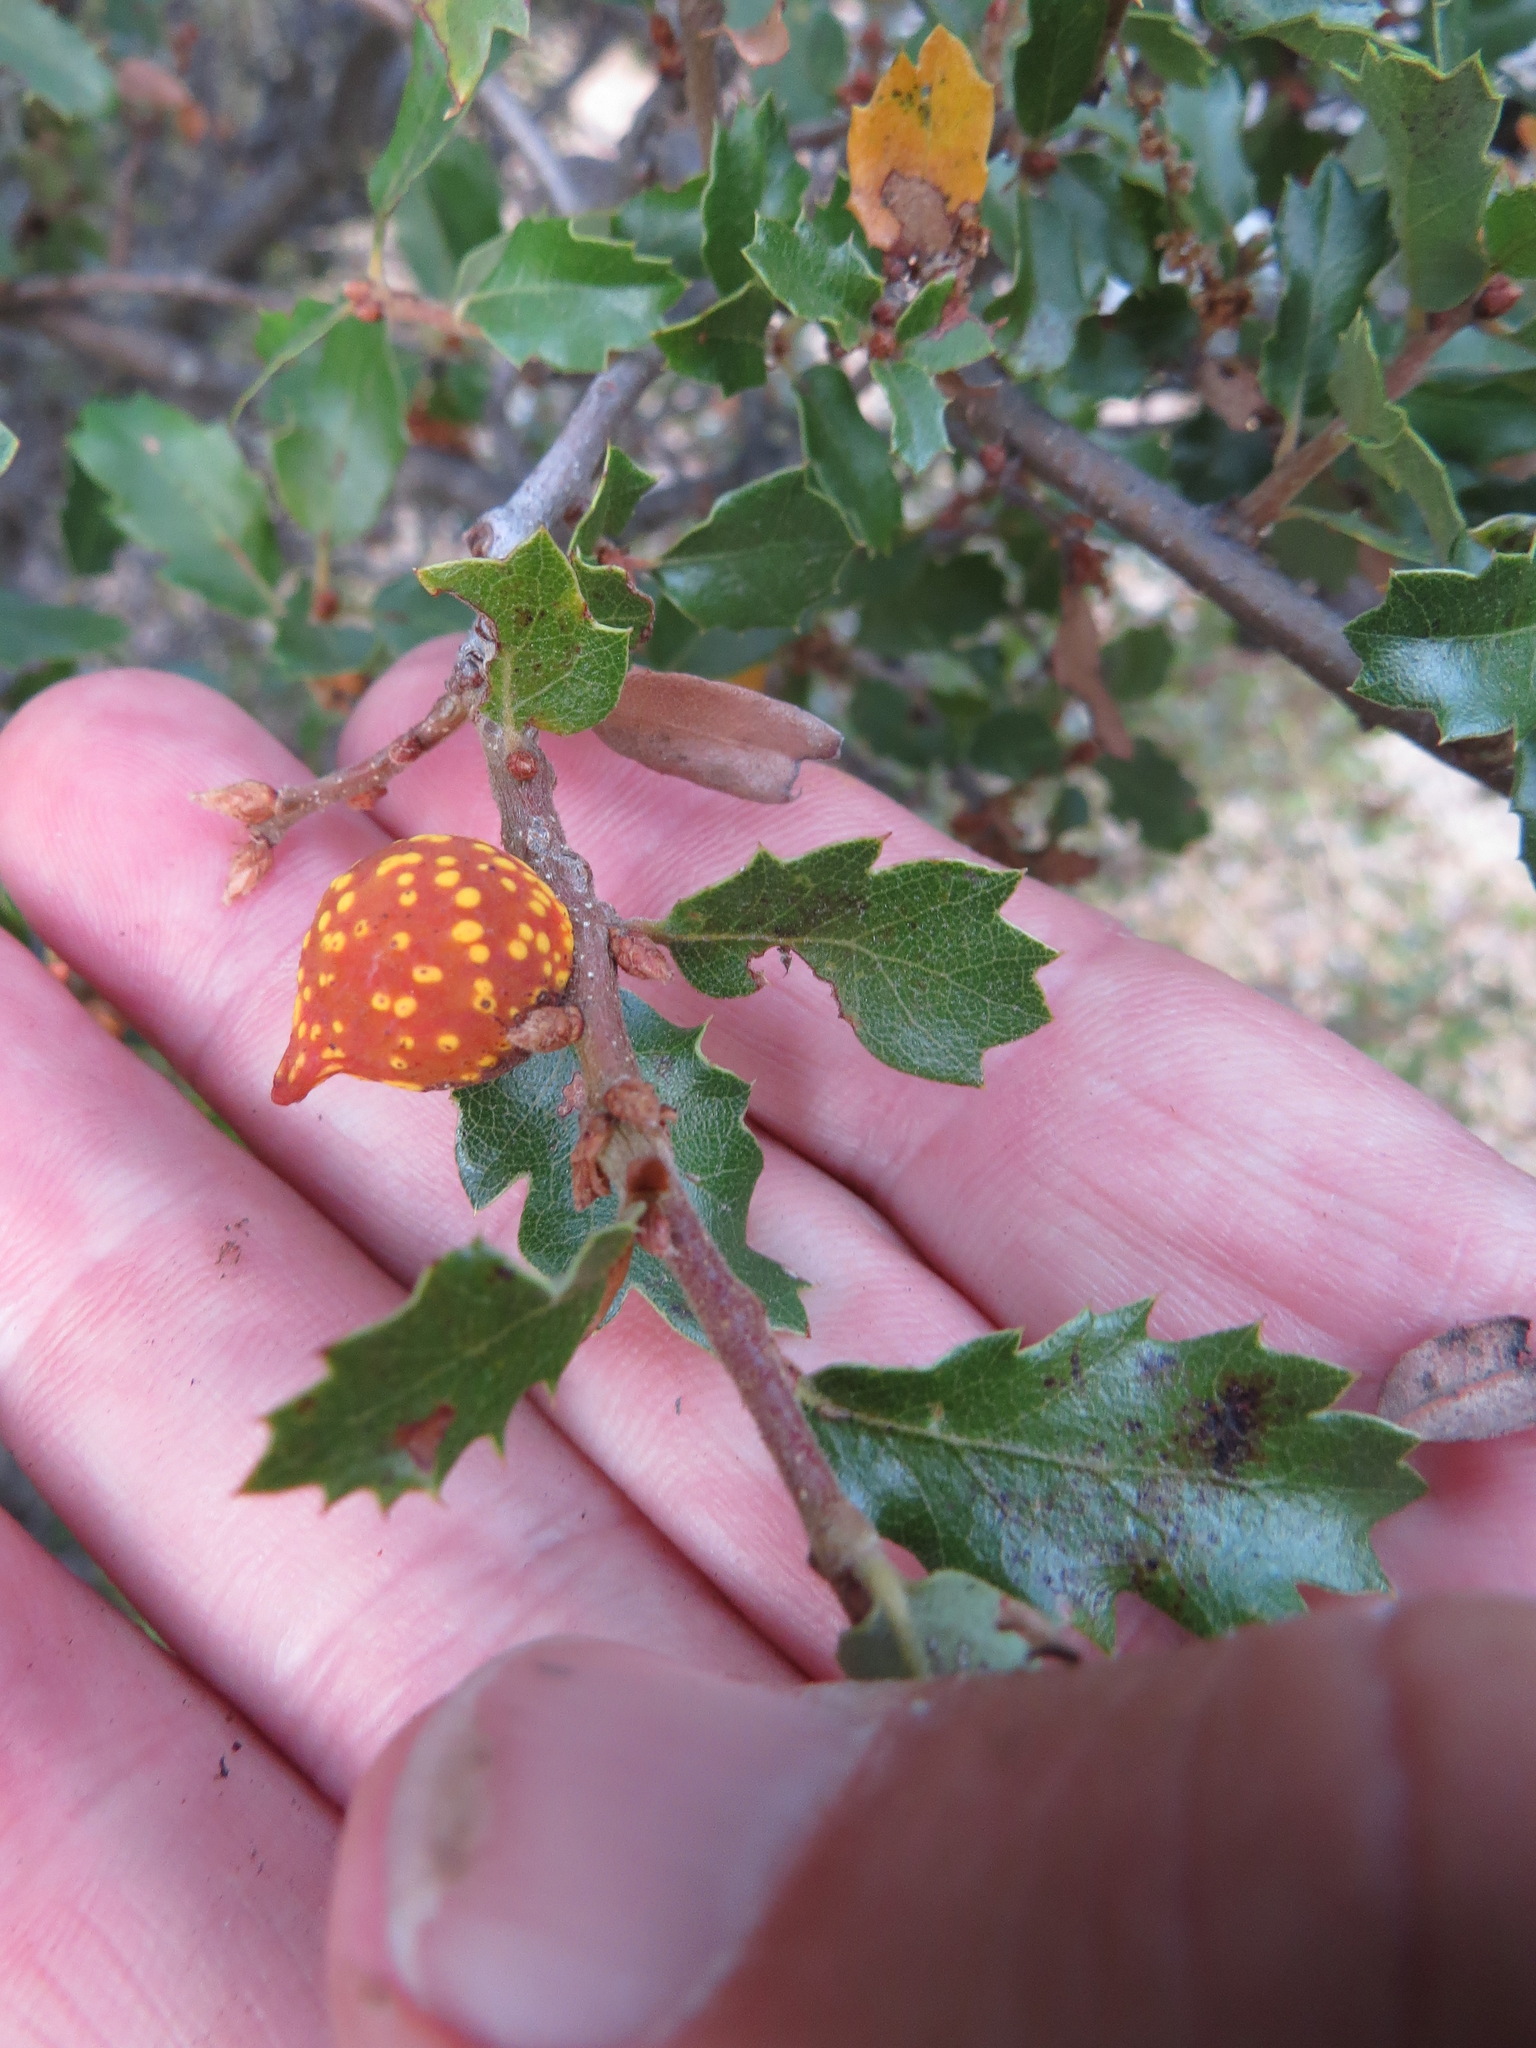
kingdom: Animalia
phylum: Arthropoda
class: Insecta
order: Hymenoptera
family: Cynipidae
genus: Burnettweldia
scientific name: Burnettweldia
